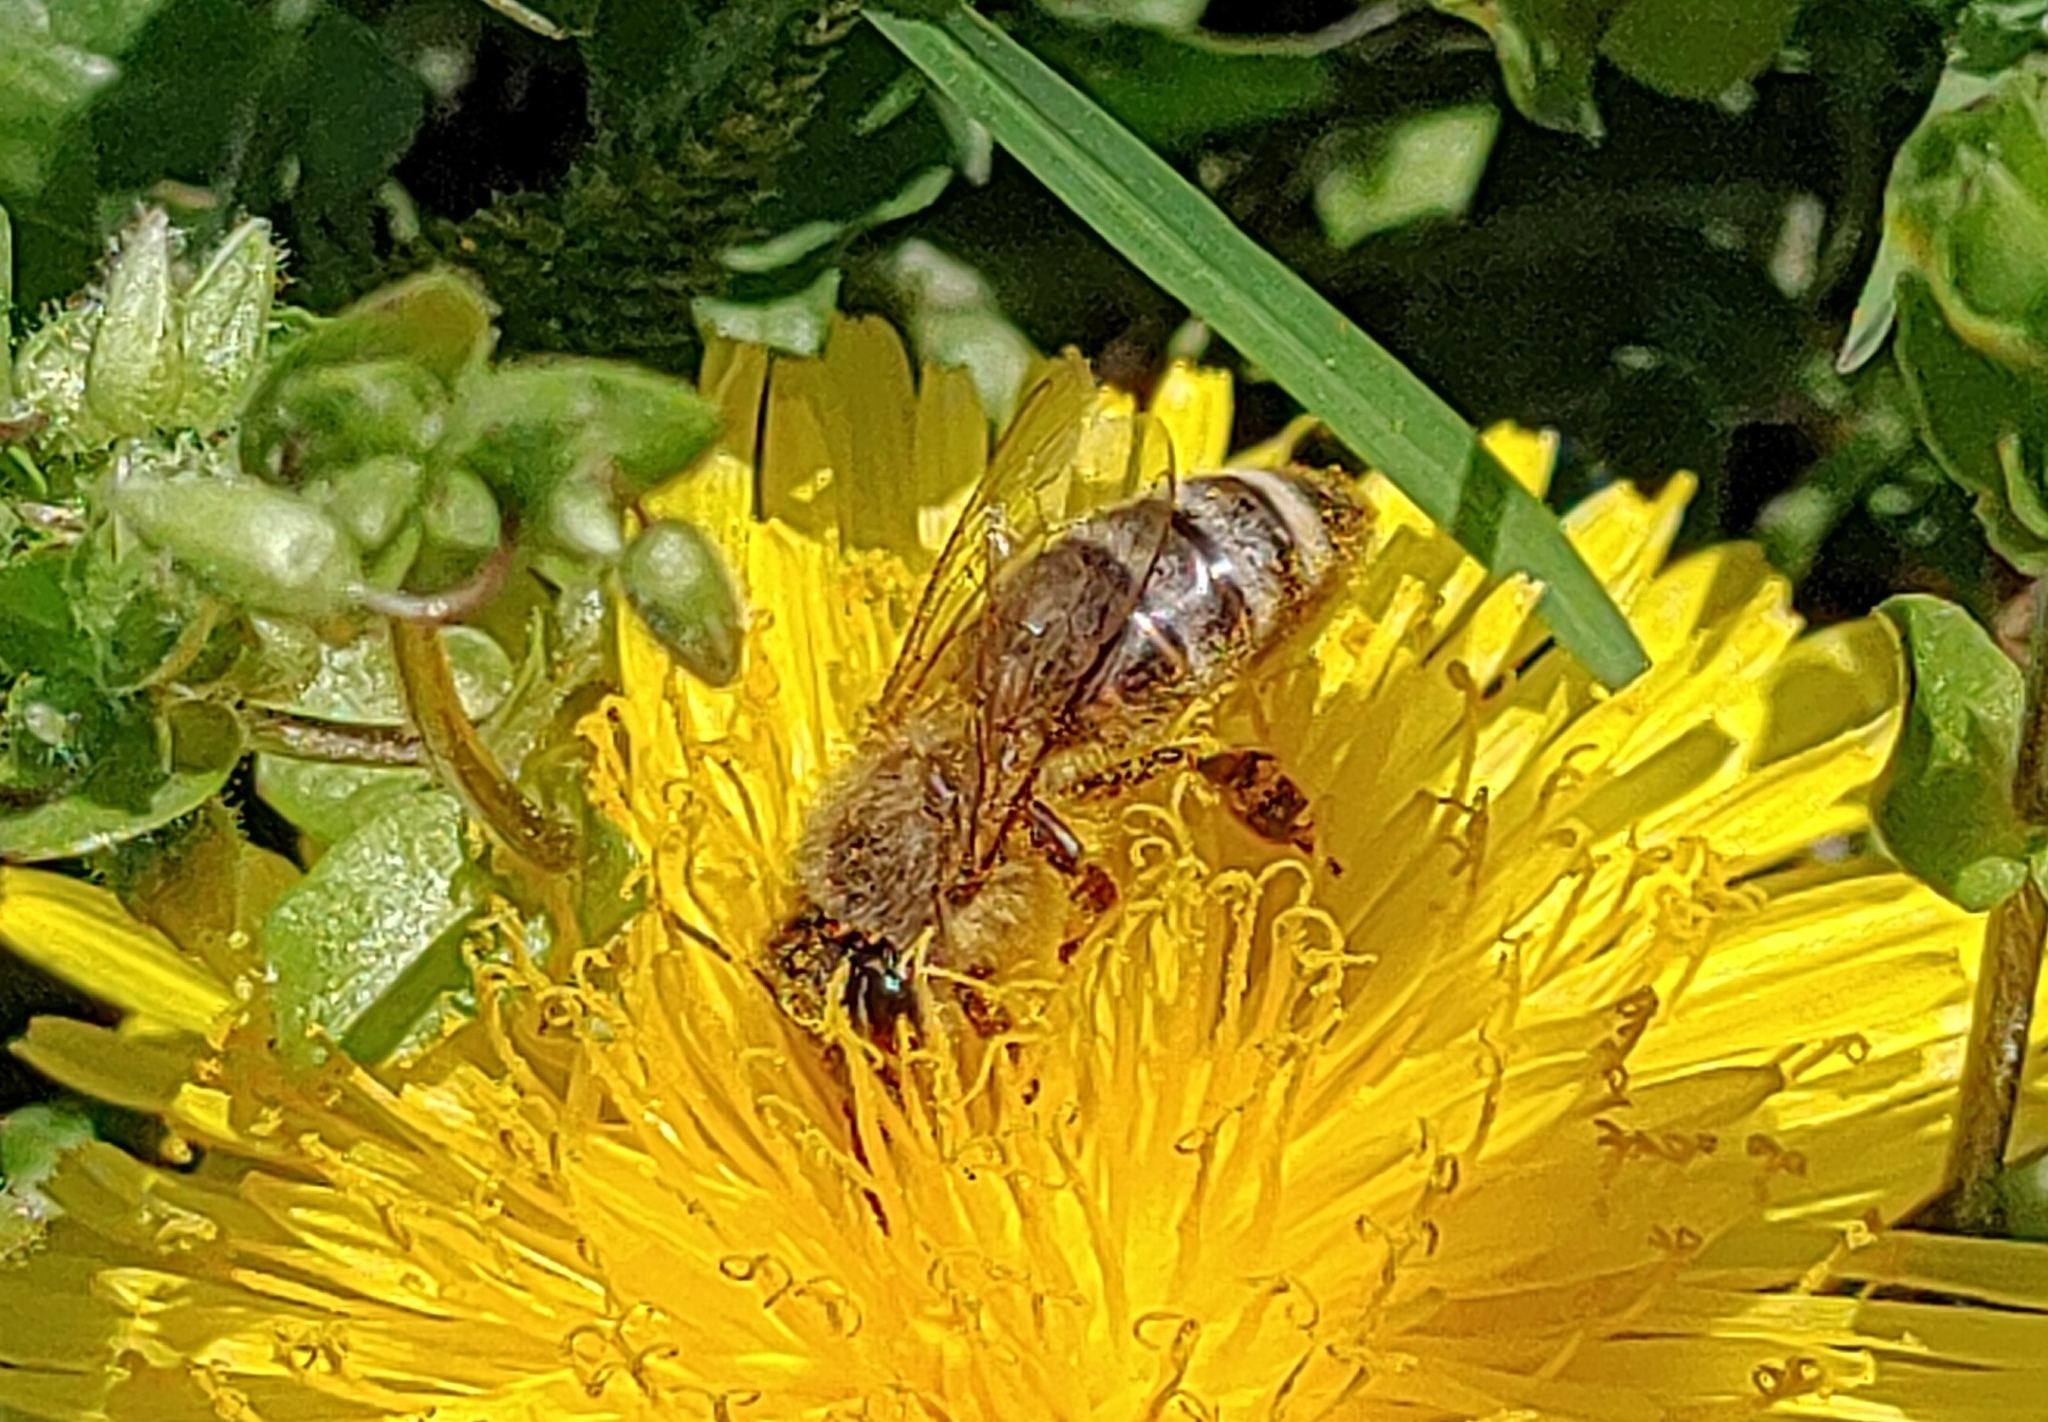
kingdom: Animalia
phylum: Arthropoda
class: Insecta
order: Hymenoptera
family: Apidae
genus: Apis
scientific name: Apis mellifera
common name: Honey bee
